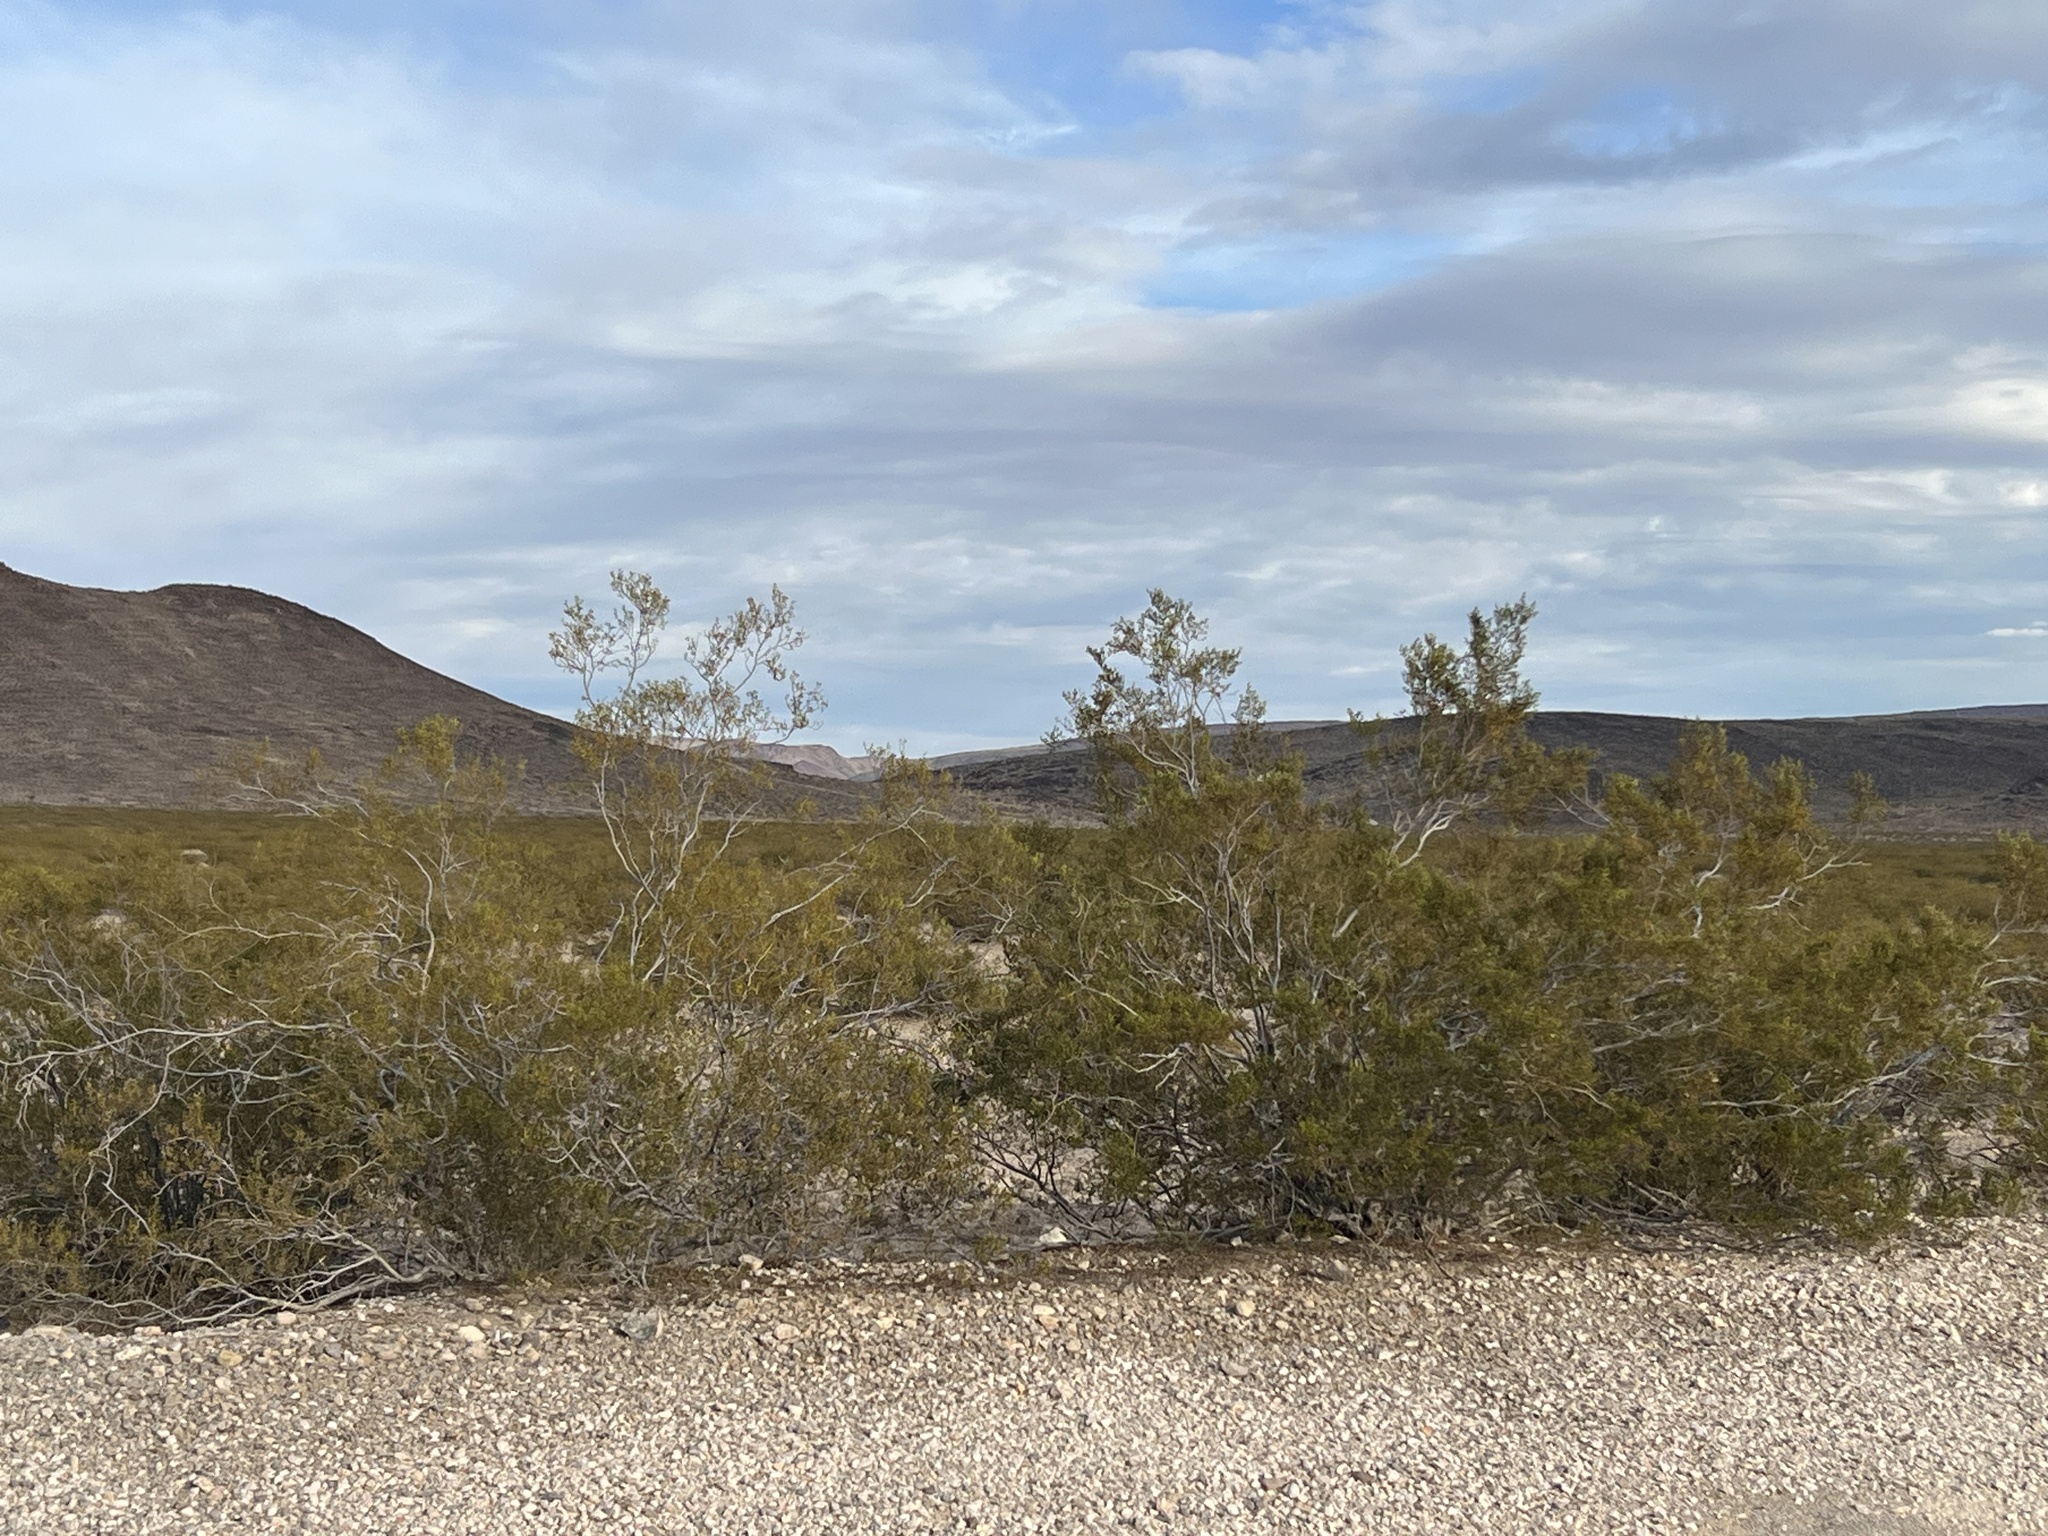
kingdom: Plantae
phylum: Tracheophyta
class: Magnoliopsida
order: Zygophyllales
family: Zygophyllaceae
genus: Larrea
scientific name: Larrea tridentata
